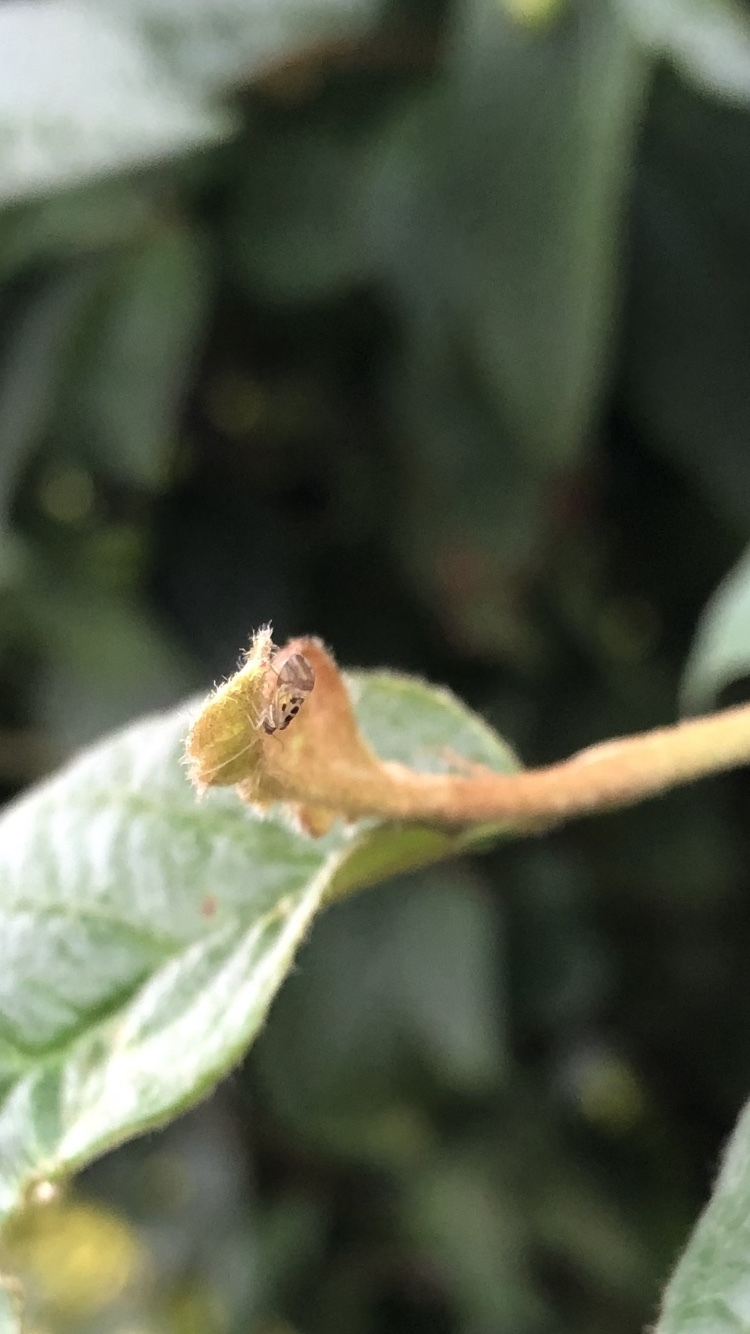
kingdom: Animalia
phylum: Arthropoda
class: Insecta
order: Psocodea
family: Stenopsocidae
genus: Graphopsocus
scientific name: Graphopsocus cruciatus
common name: Lizard bark louse
